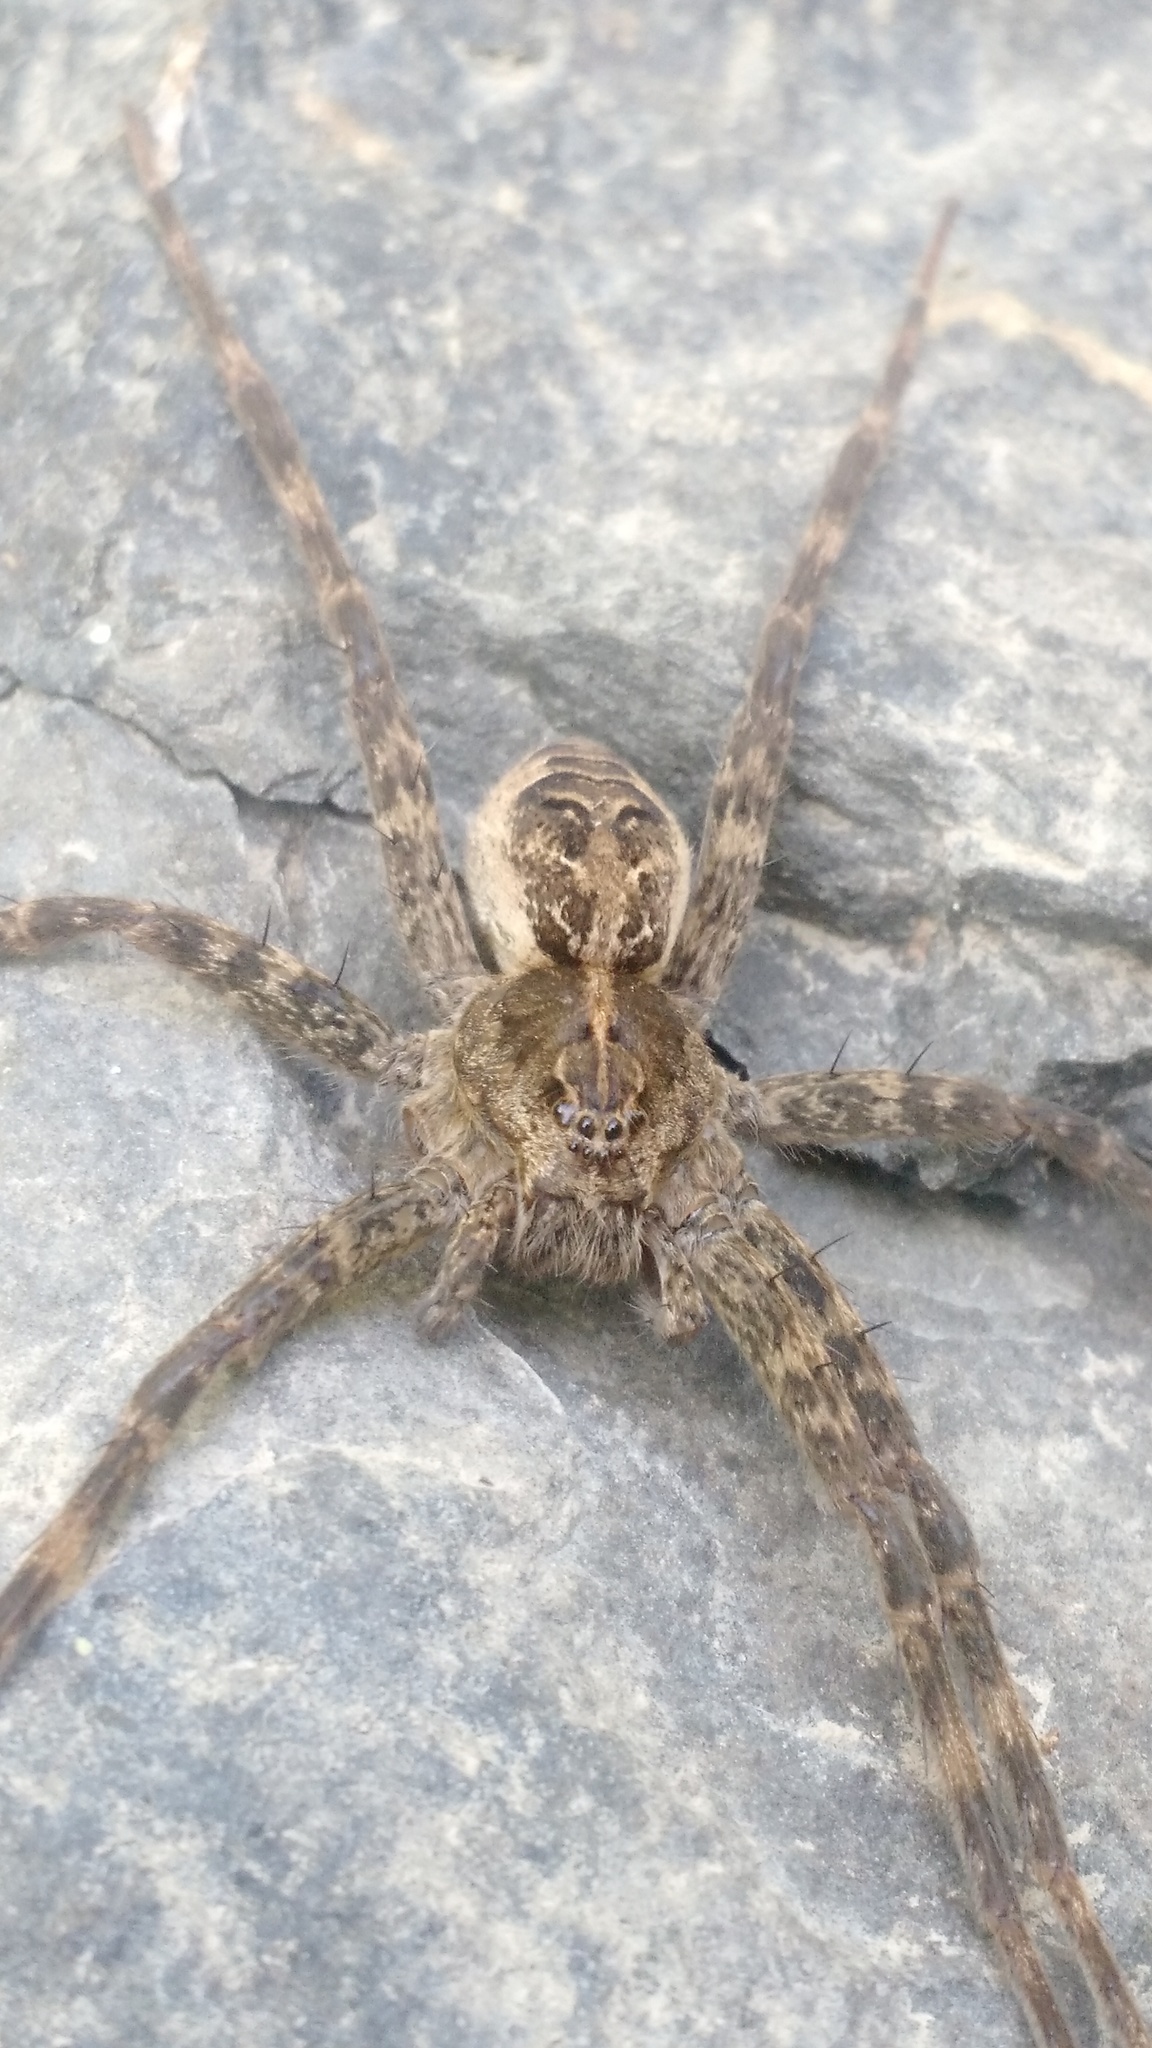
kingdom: Animalia
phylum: Arthropoda
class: Arachnida
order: Araneae
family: Pisauridae
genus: Dolomedes
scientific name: Dolomedes scriptus
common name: Striped fishing spider
